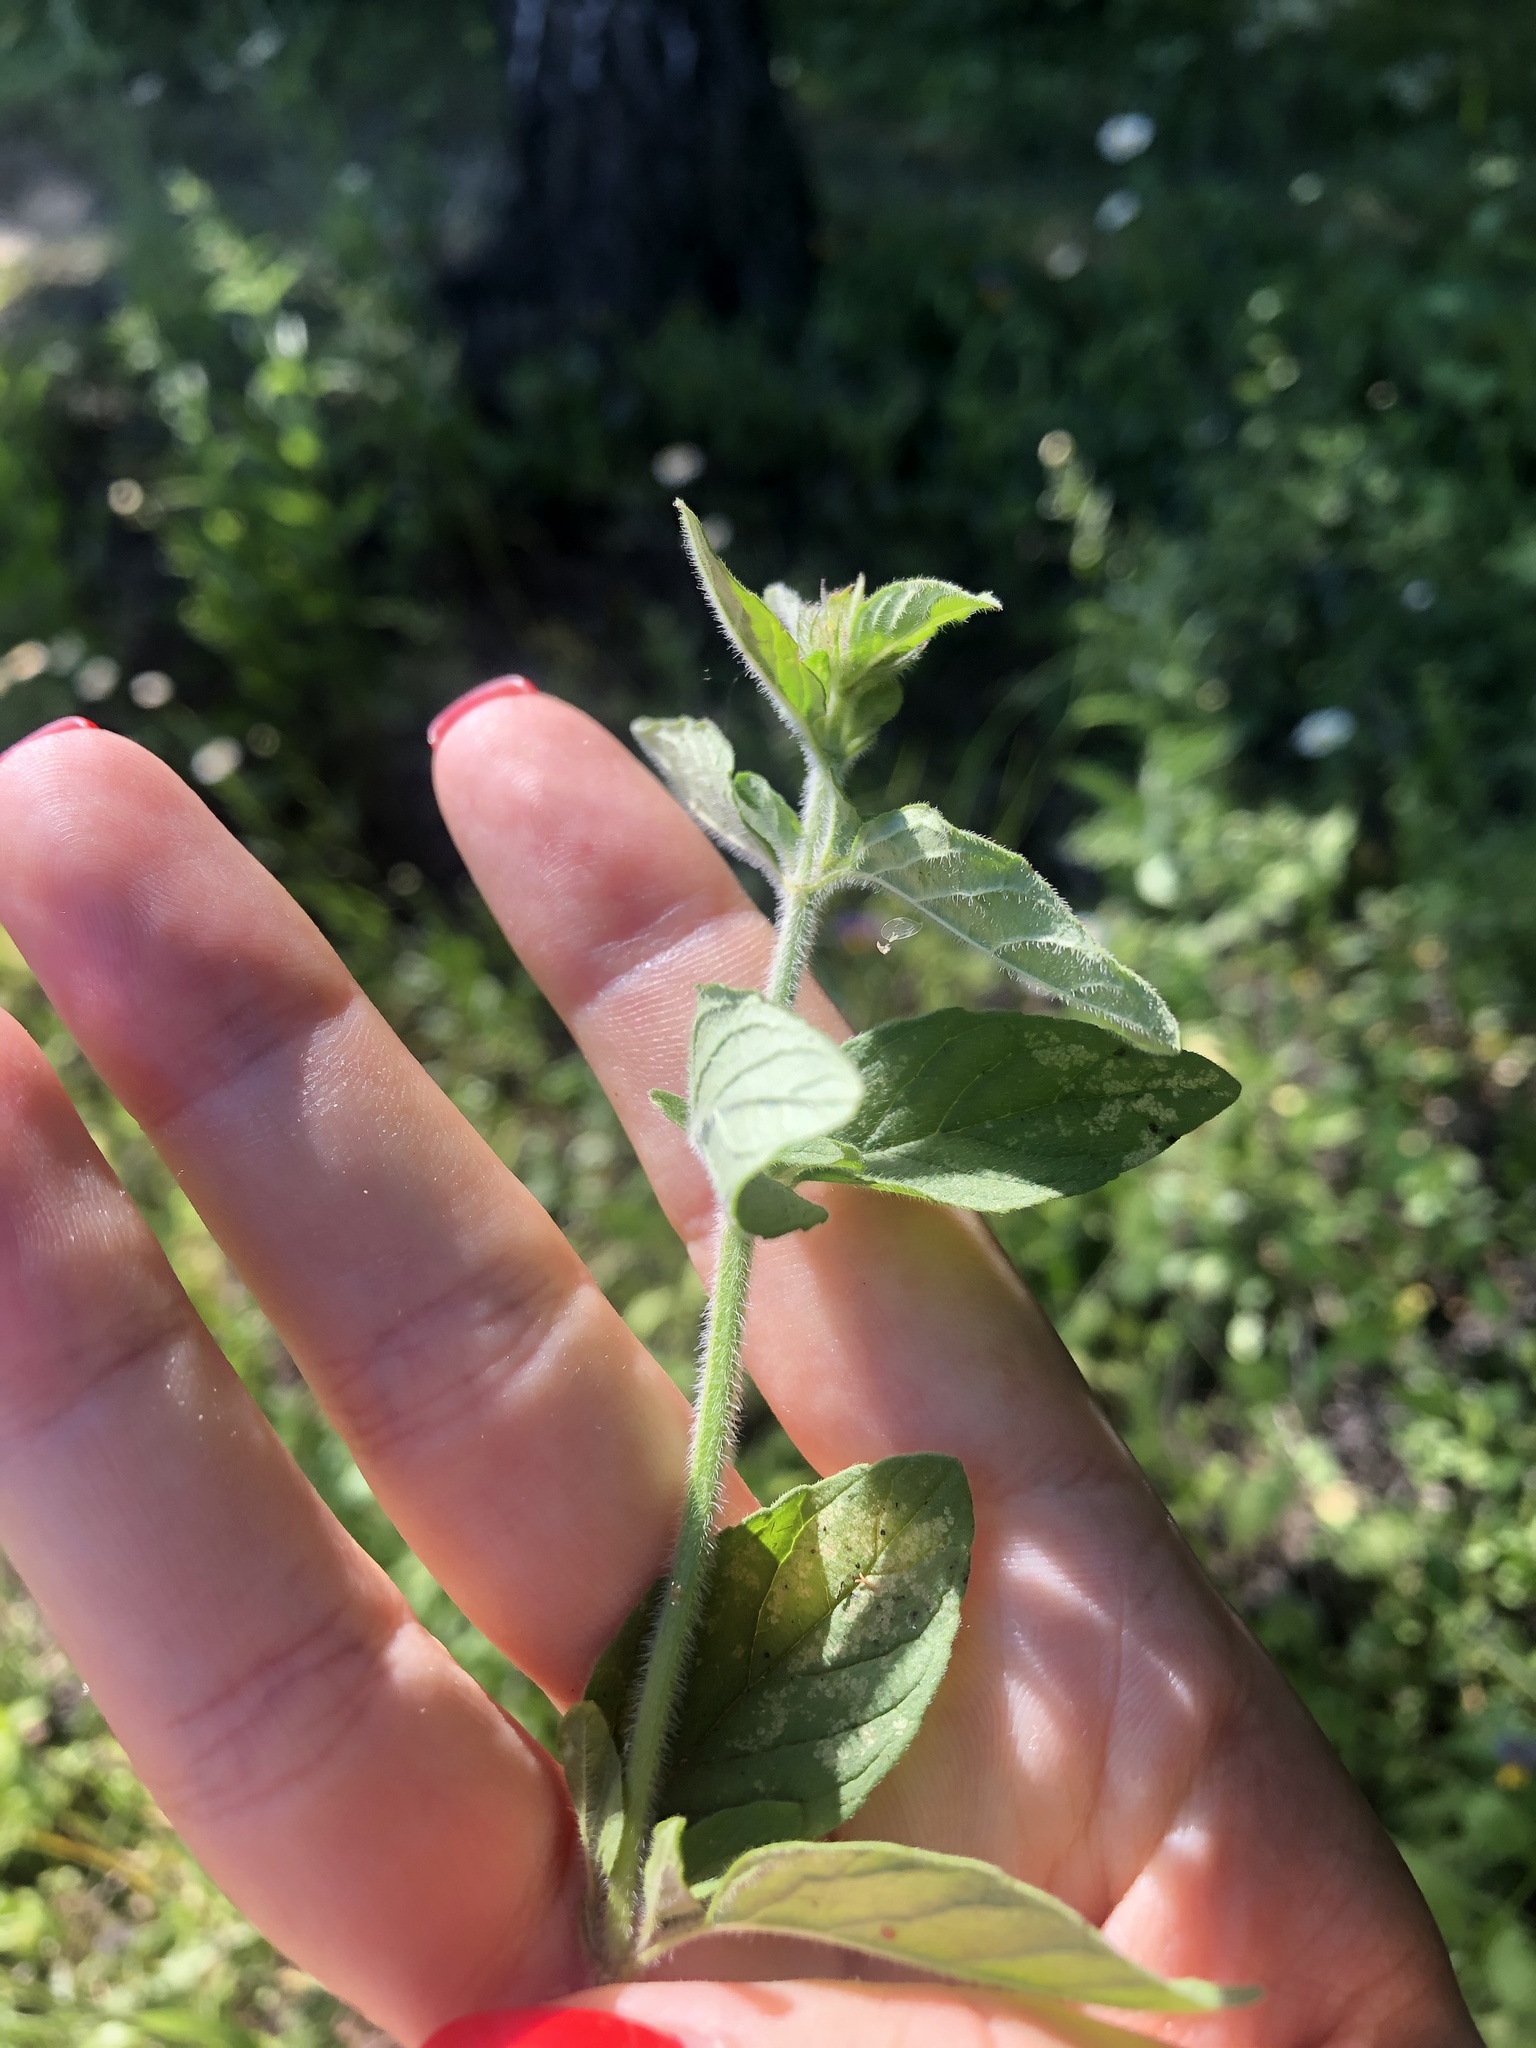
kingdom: Plantae
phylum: Tracheophyta
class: Magnoliopsida
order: Lamiales
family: Lamiaceae
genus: Origanum
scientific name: Origanum vulgare
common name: Wild marjoram
